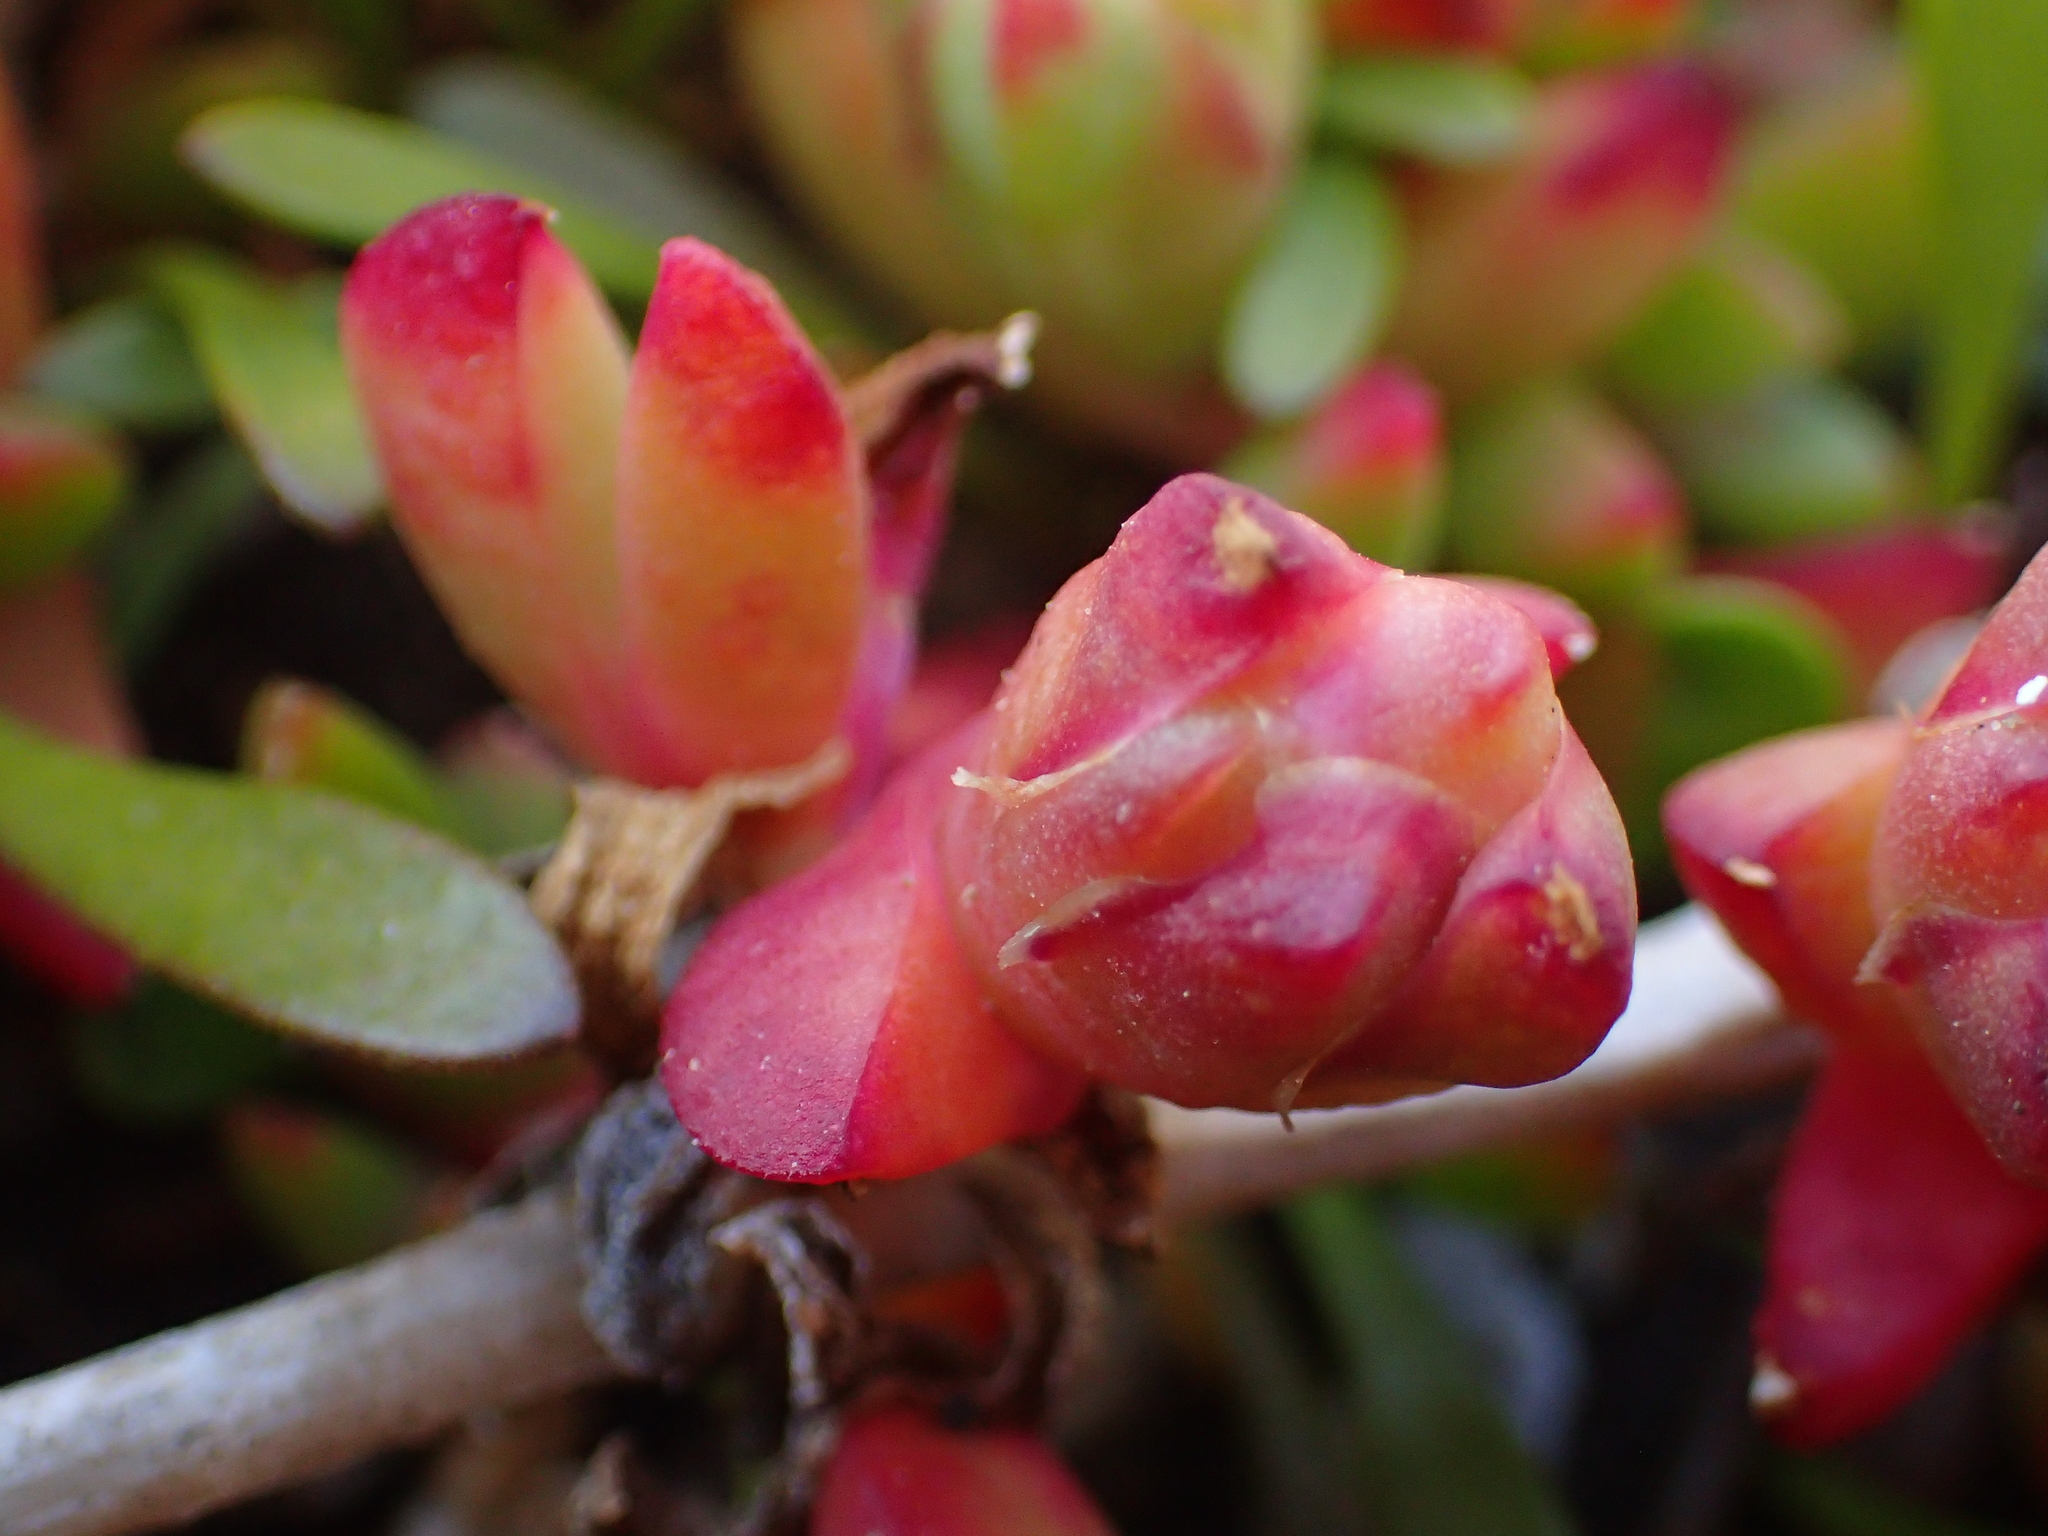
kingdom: Plantae
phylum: Tracheophyta
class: Magnoliopsida
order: Caryophyllales
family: Aizoaceae
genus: Disphyma
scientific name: Disphyma australe
